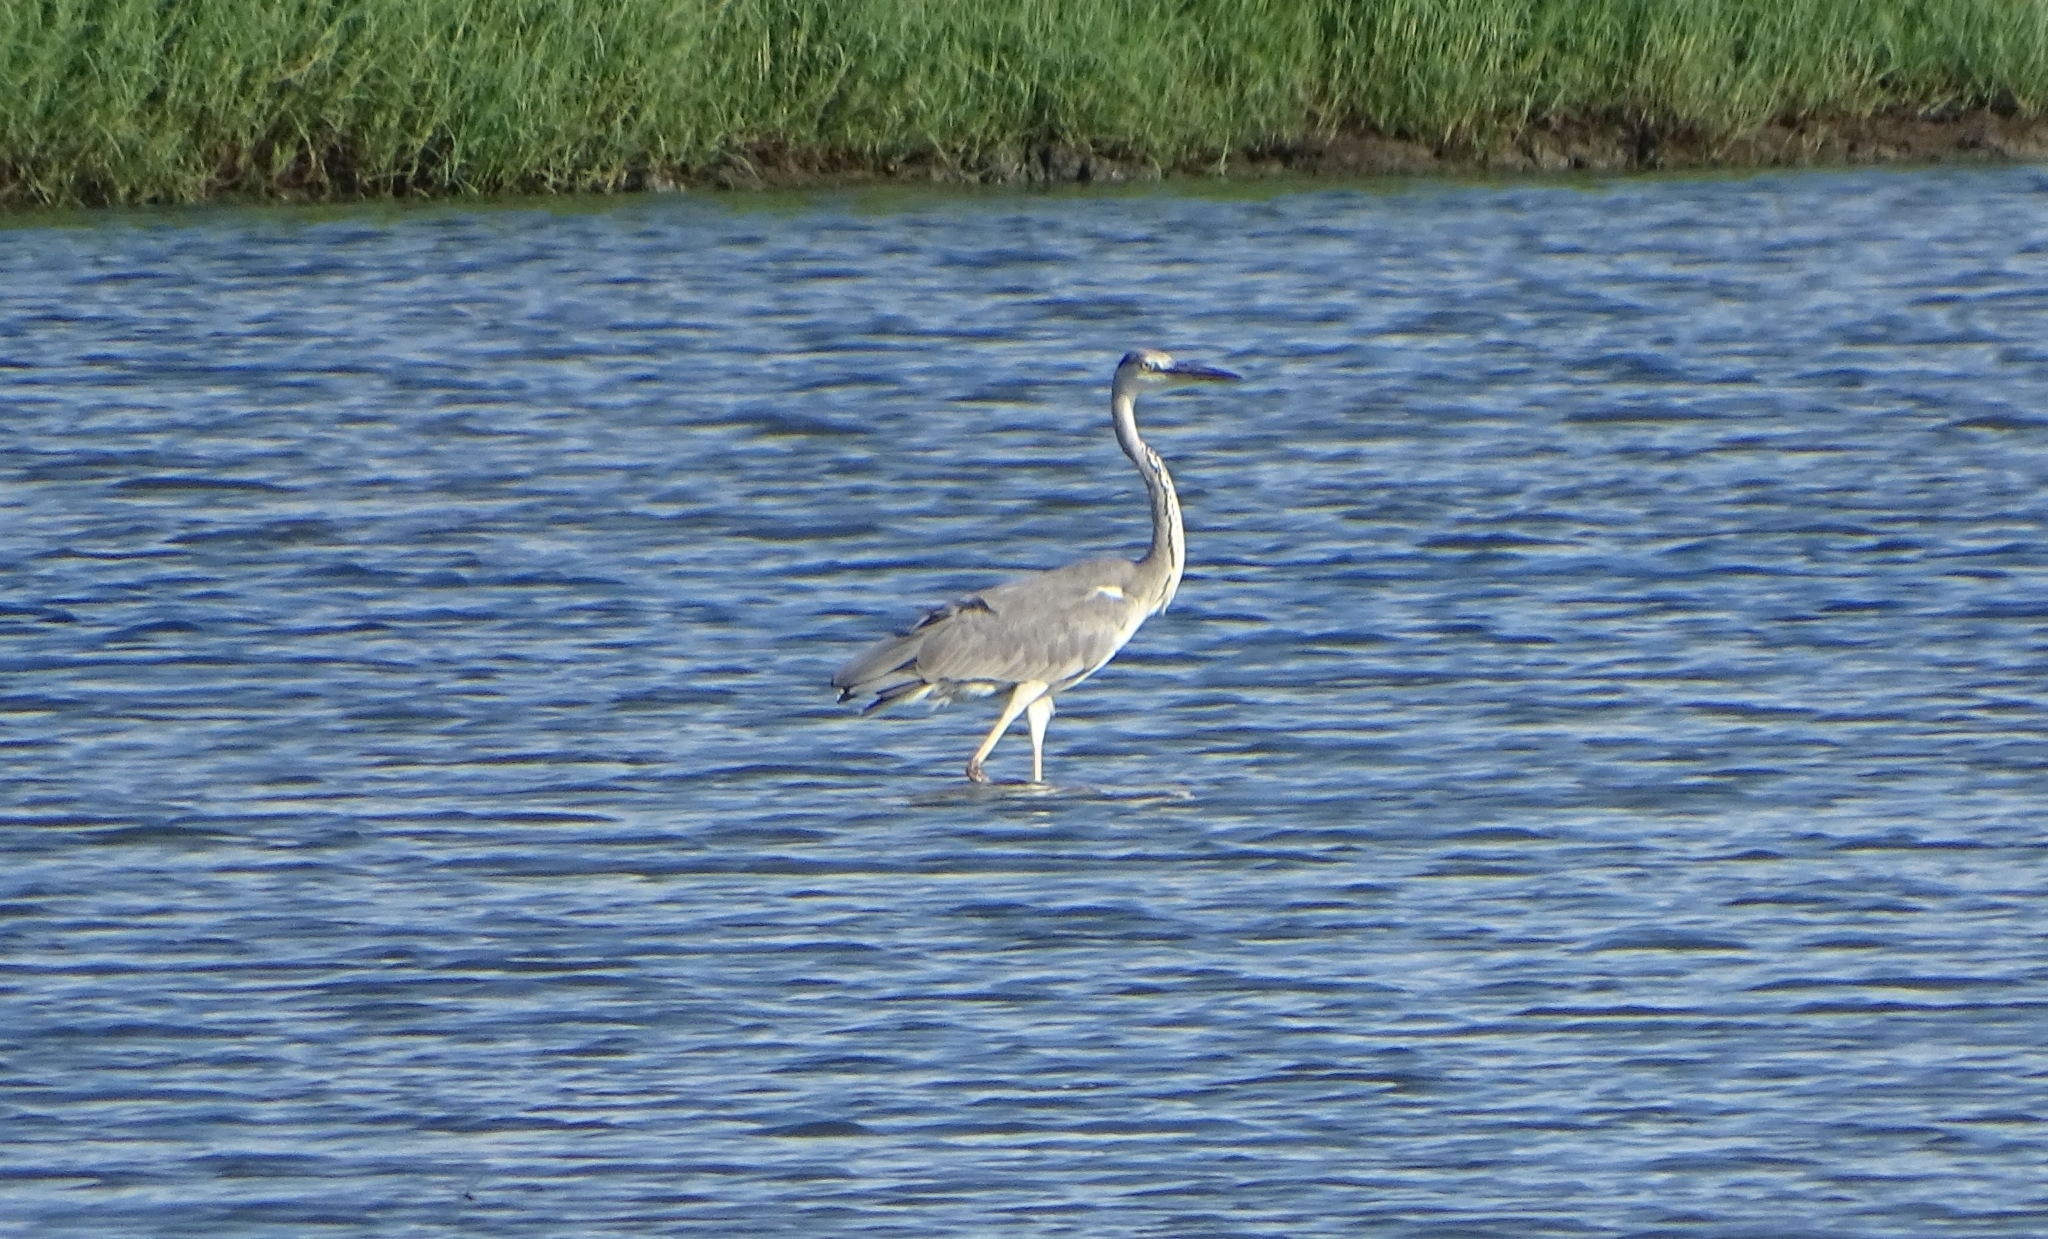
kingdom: Animalia
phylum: Chordata
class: Aves
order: Pelecaniformes
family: Ardeidae
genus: Ardea
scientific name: Ardea cinerea
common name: Grey heron
